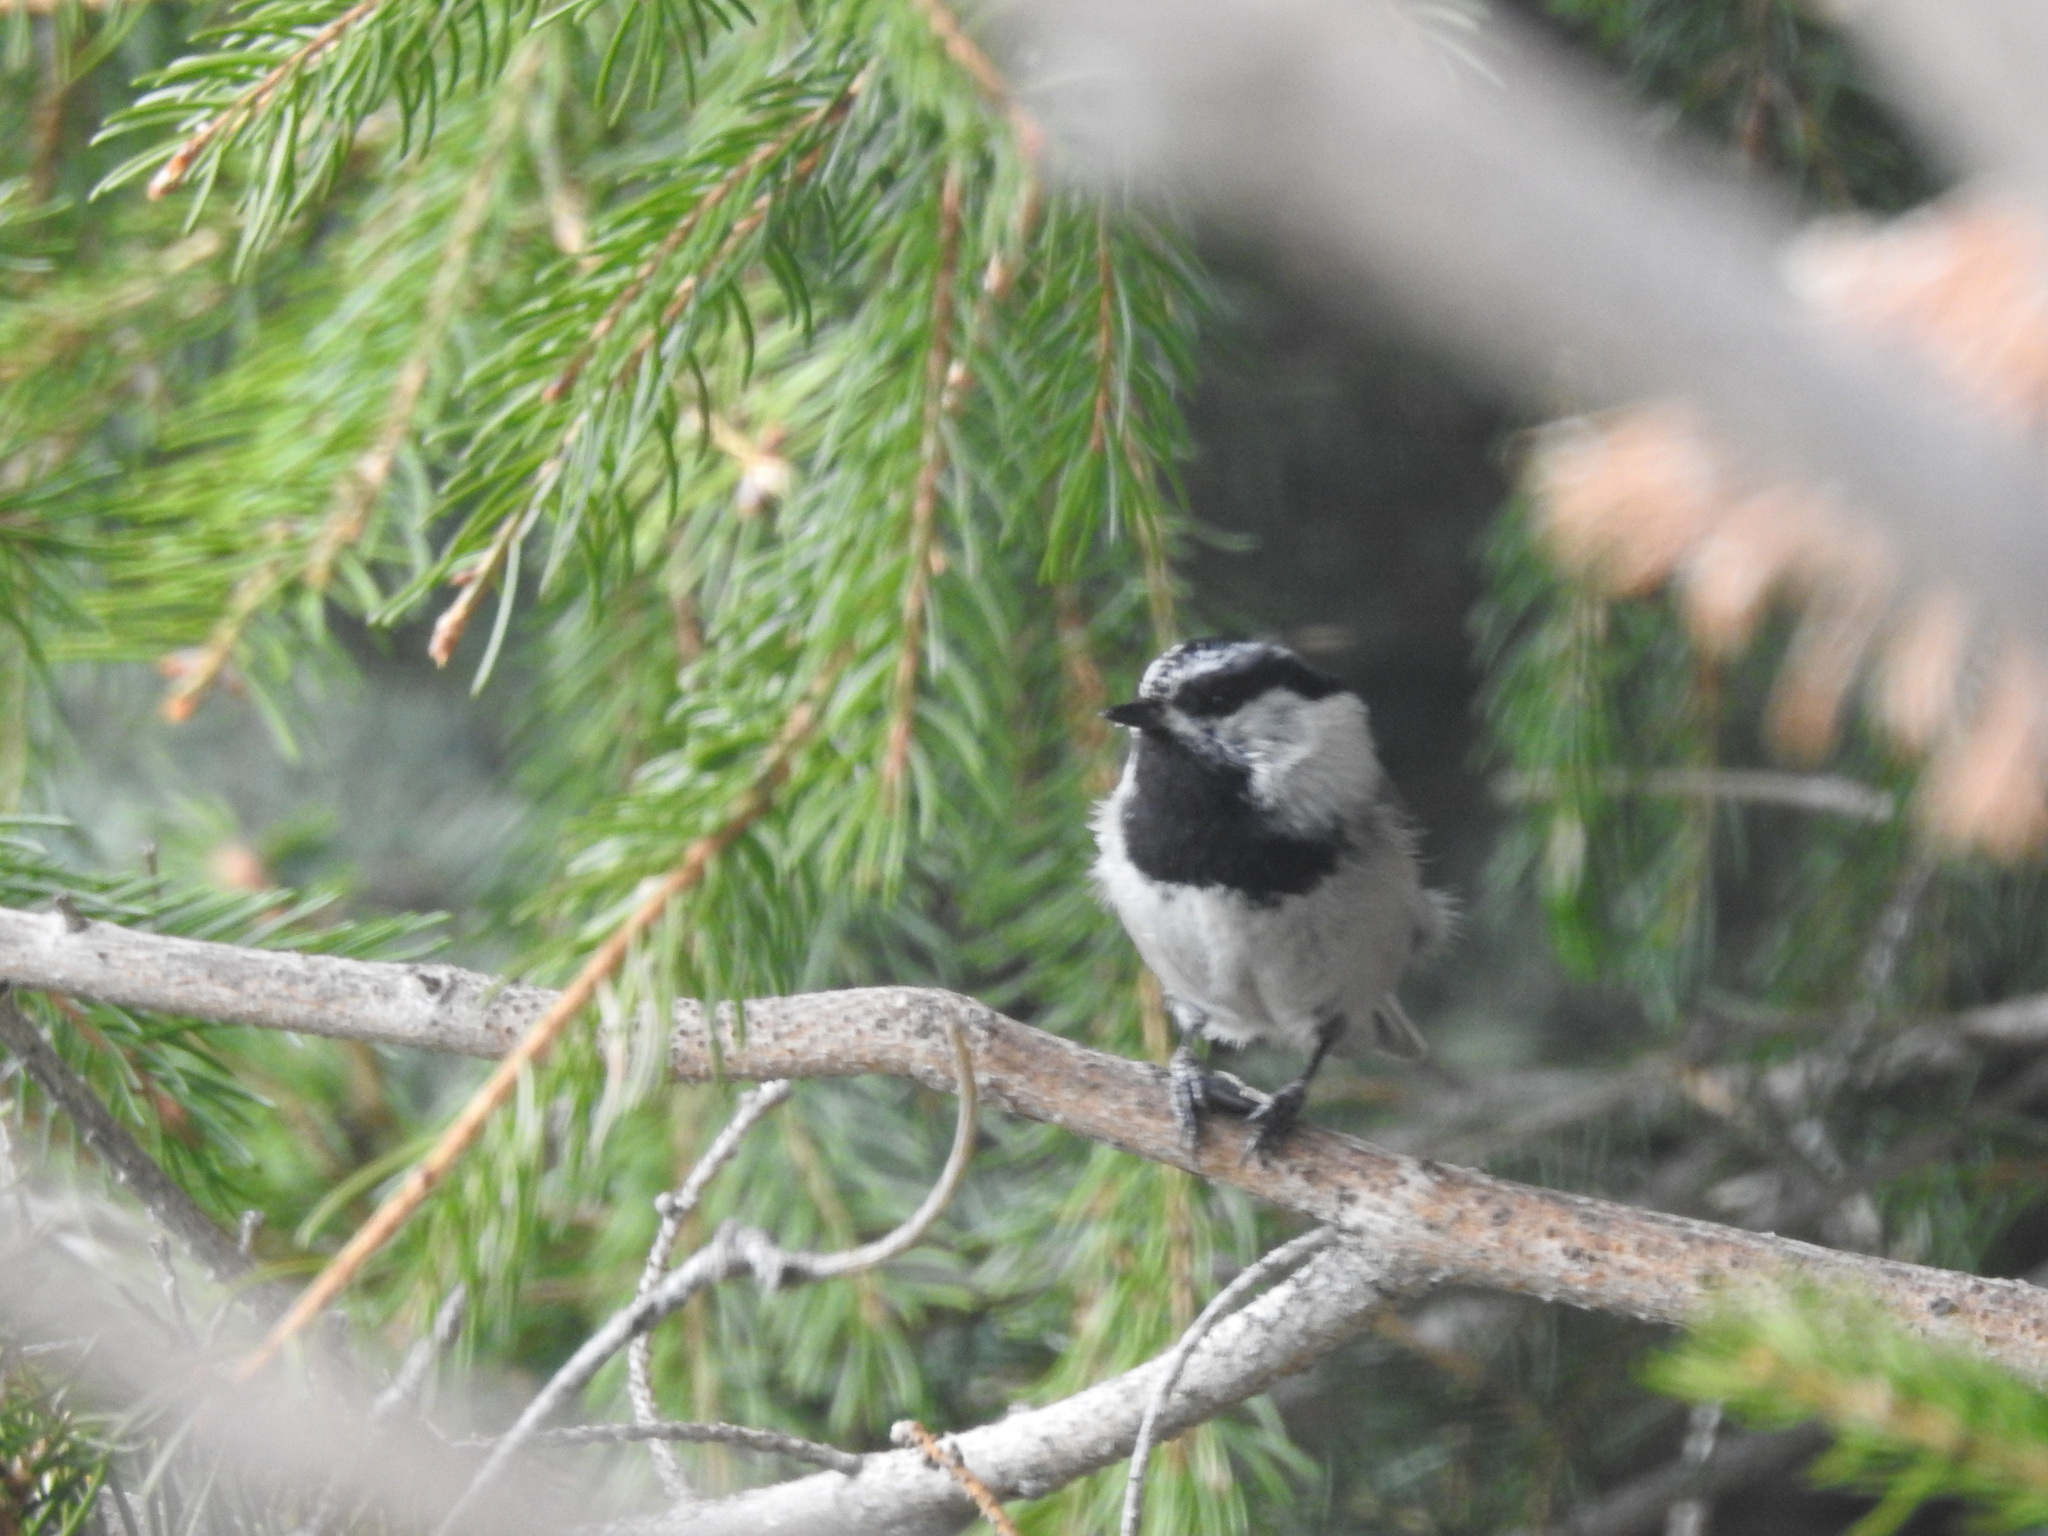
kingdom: Animalia
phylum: Chordata
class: Aves
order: Passeriformes
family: Paridae
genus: Poecile
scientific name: Poecile gambeli
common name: Mountain chickadee
